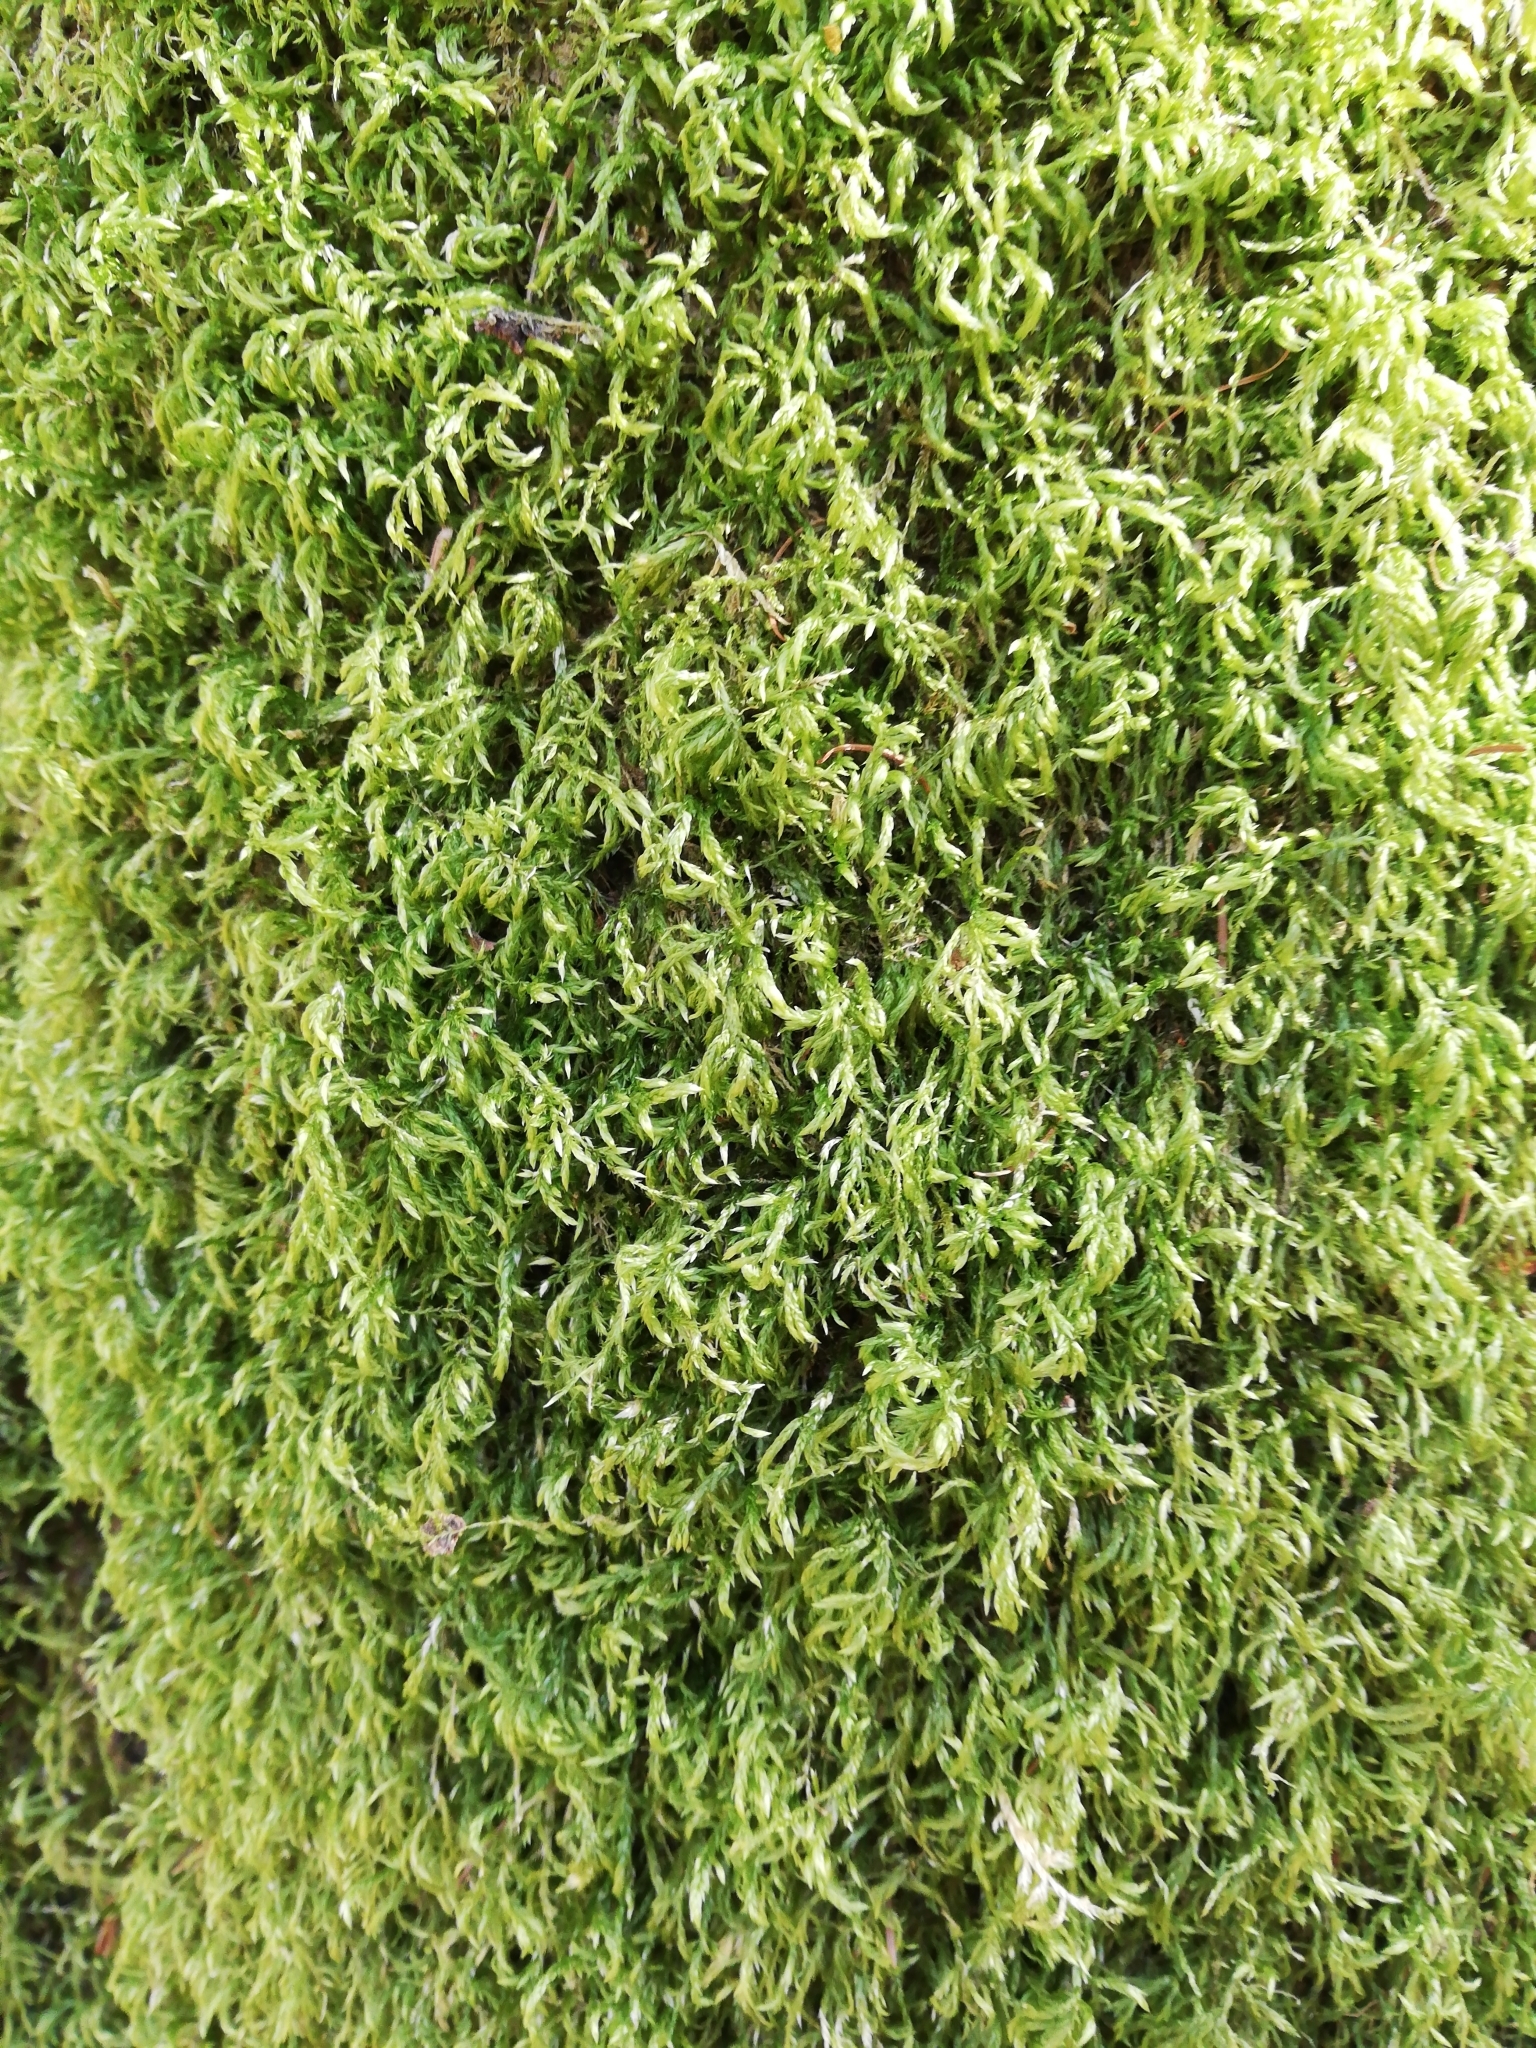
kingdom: Plantae
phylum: Bryophyta
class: Bryopsida
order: Hypnales
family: Lembophyllaceae
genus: Pseudisothecium
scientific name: Pseudisothecium myosuroides
